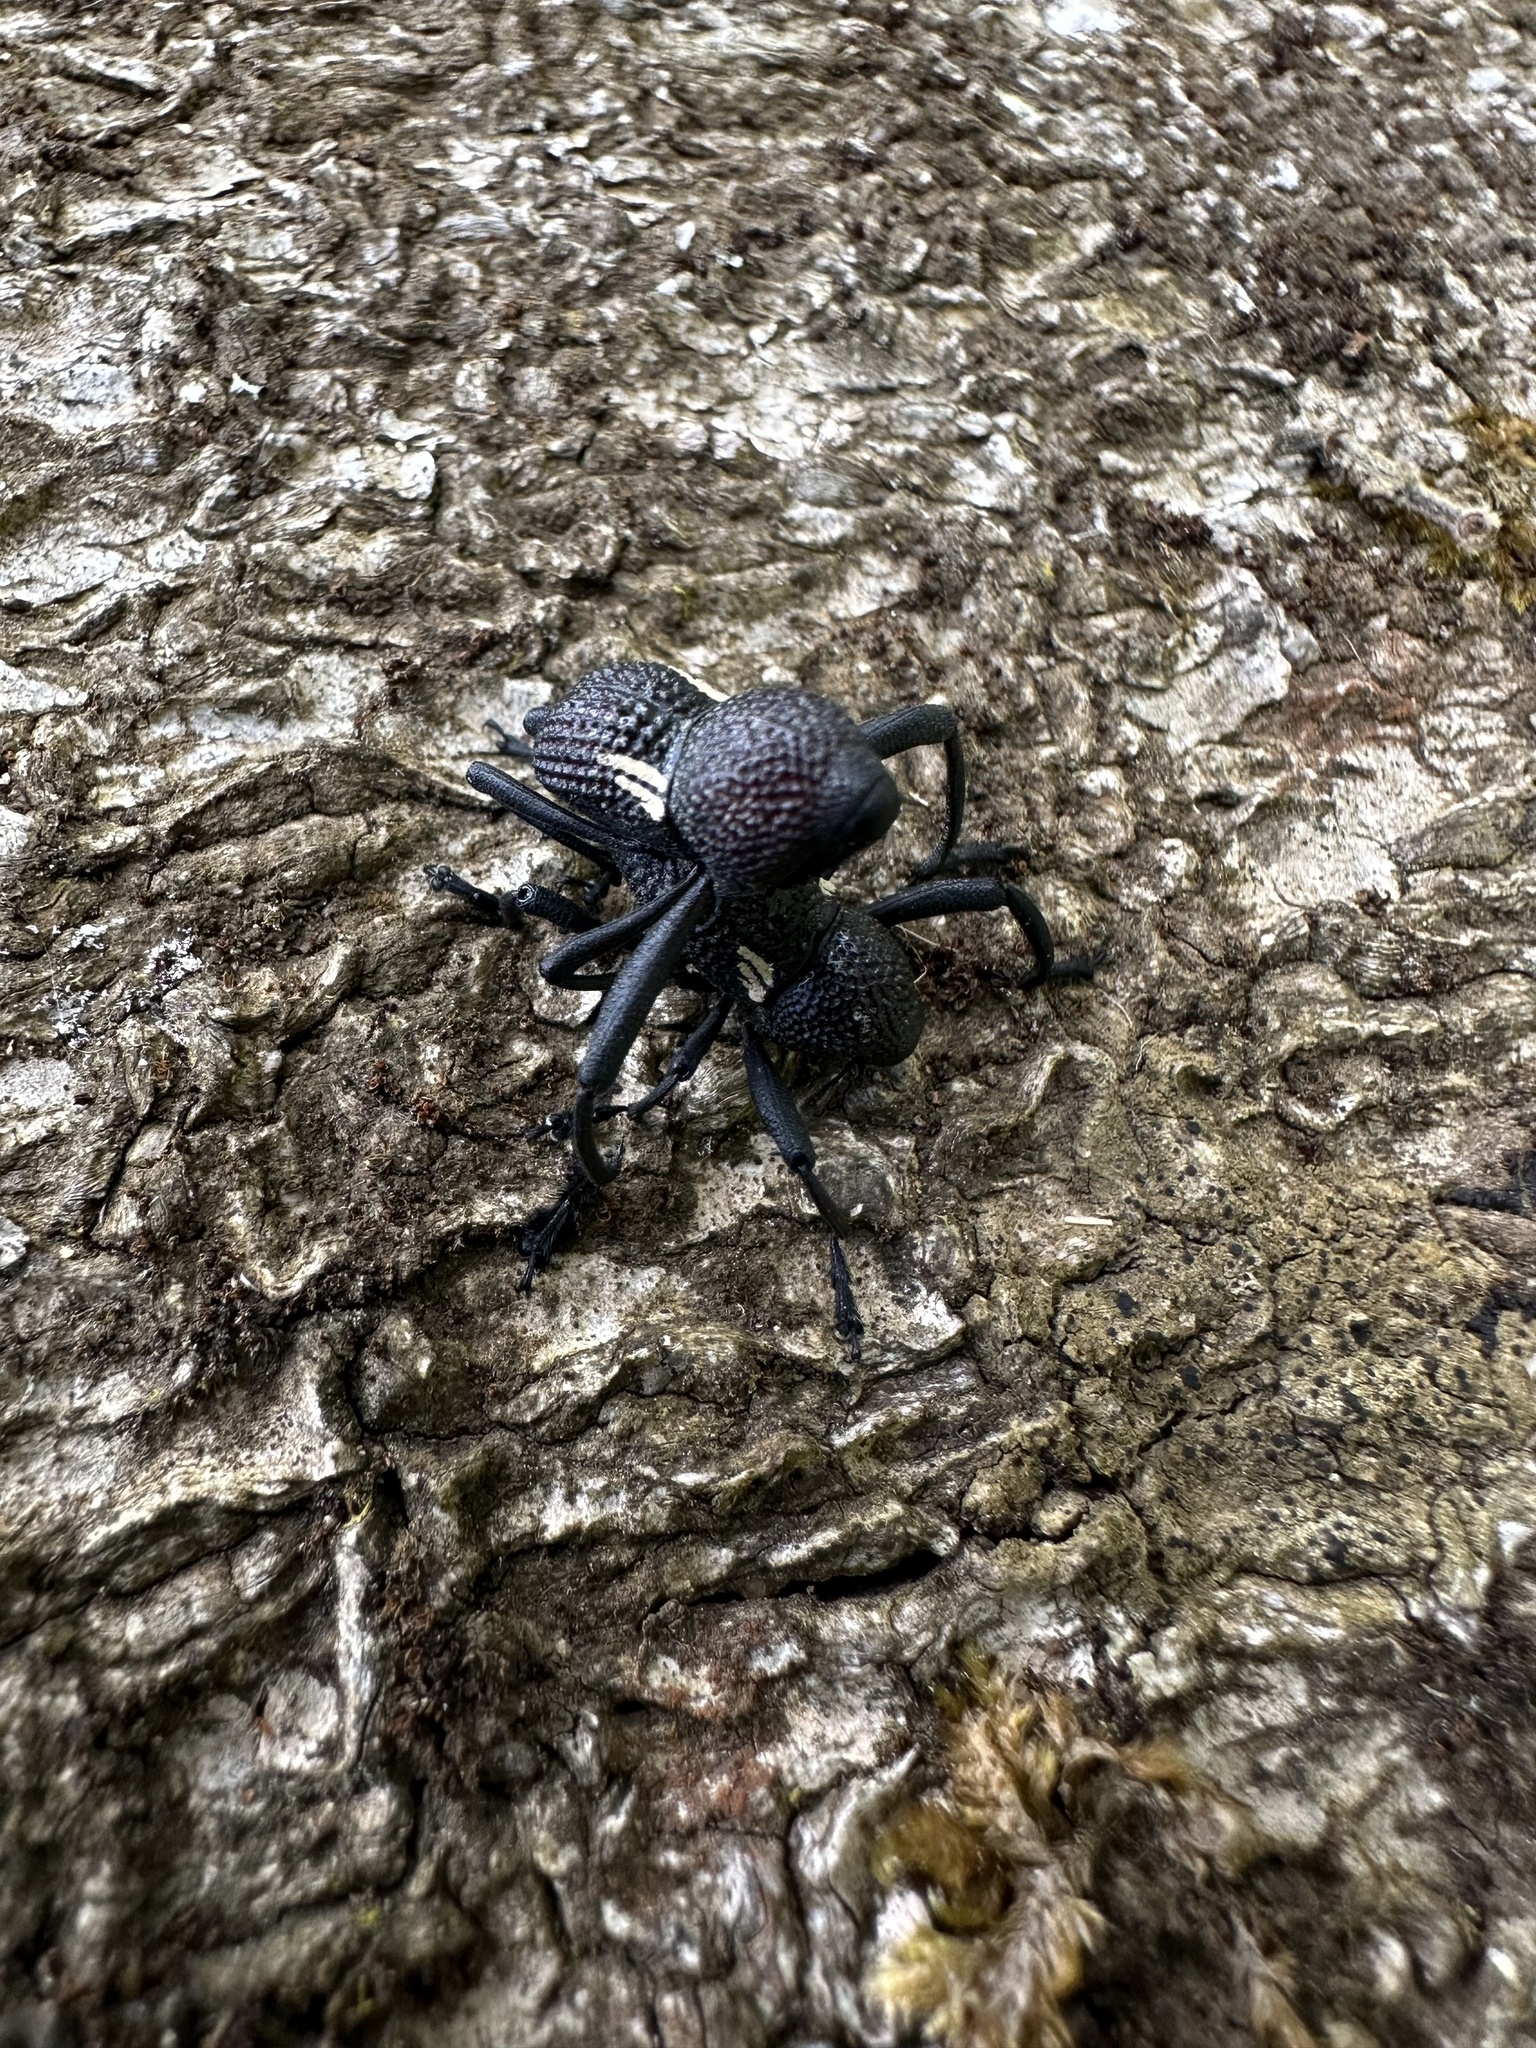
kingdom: Animalia
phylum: Arthropoda
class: Insecta
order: Coleoptera
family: Curculionidae
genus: Rhyephenes
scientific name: Rhyephenes humeralis
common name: Araè±ita chilena del pino
